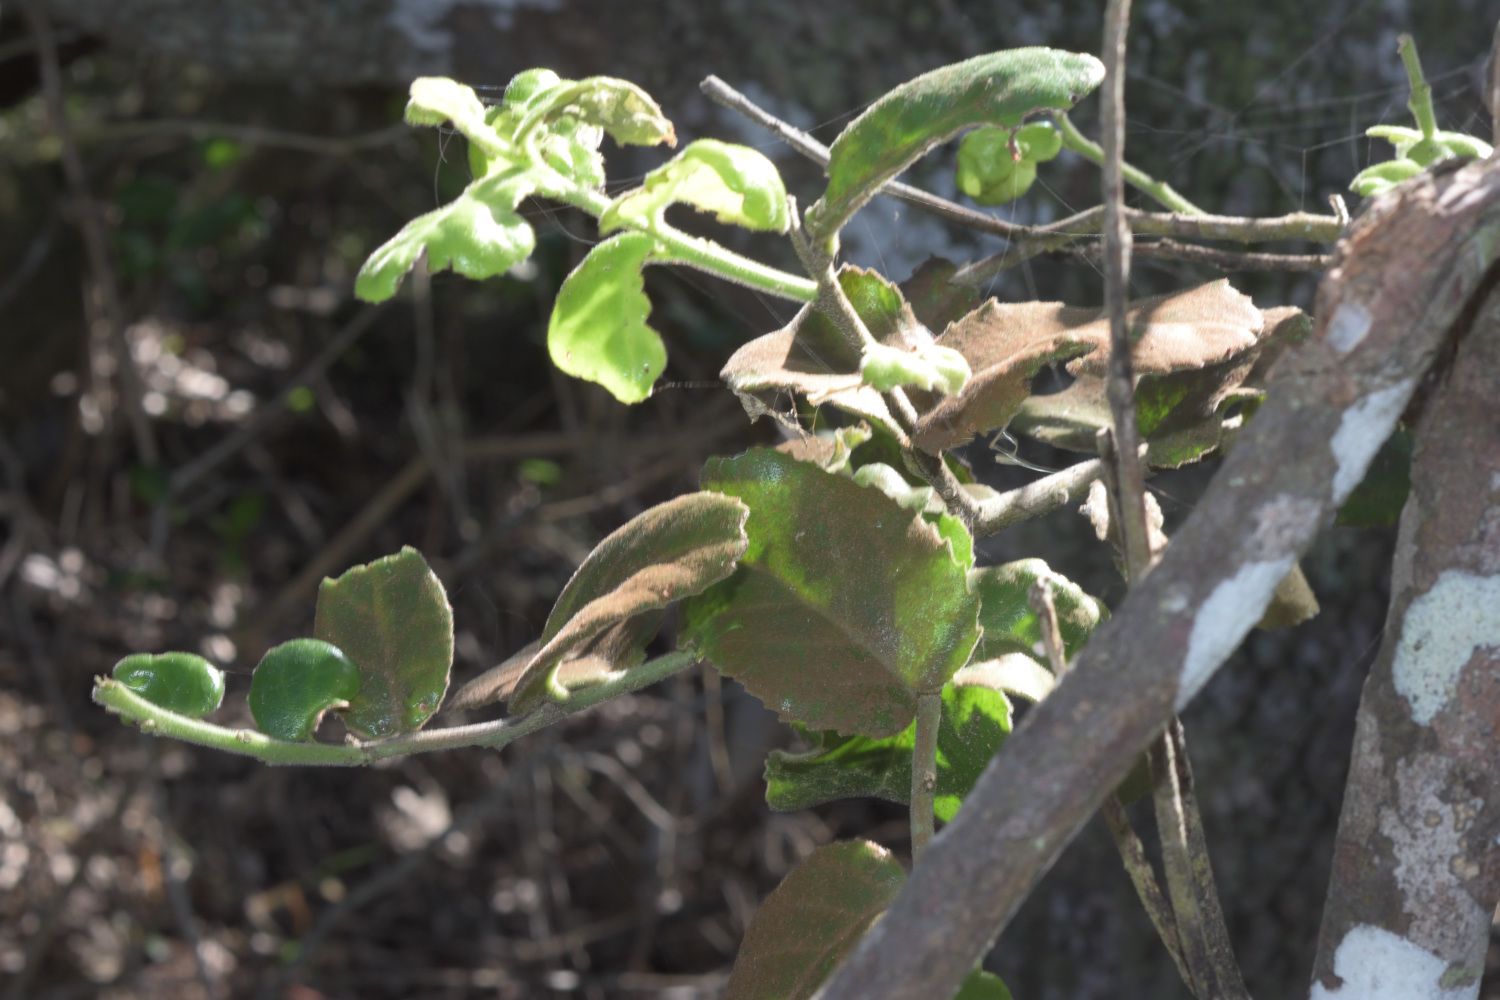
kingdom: Plantae
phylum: Tracheophyta
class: Magnoliopsida
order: Celastrales
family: Celastraceae
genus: Mystroxylon
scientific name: Mystroxylon aethiopicum
